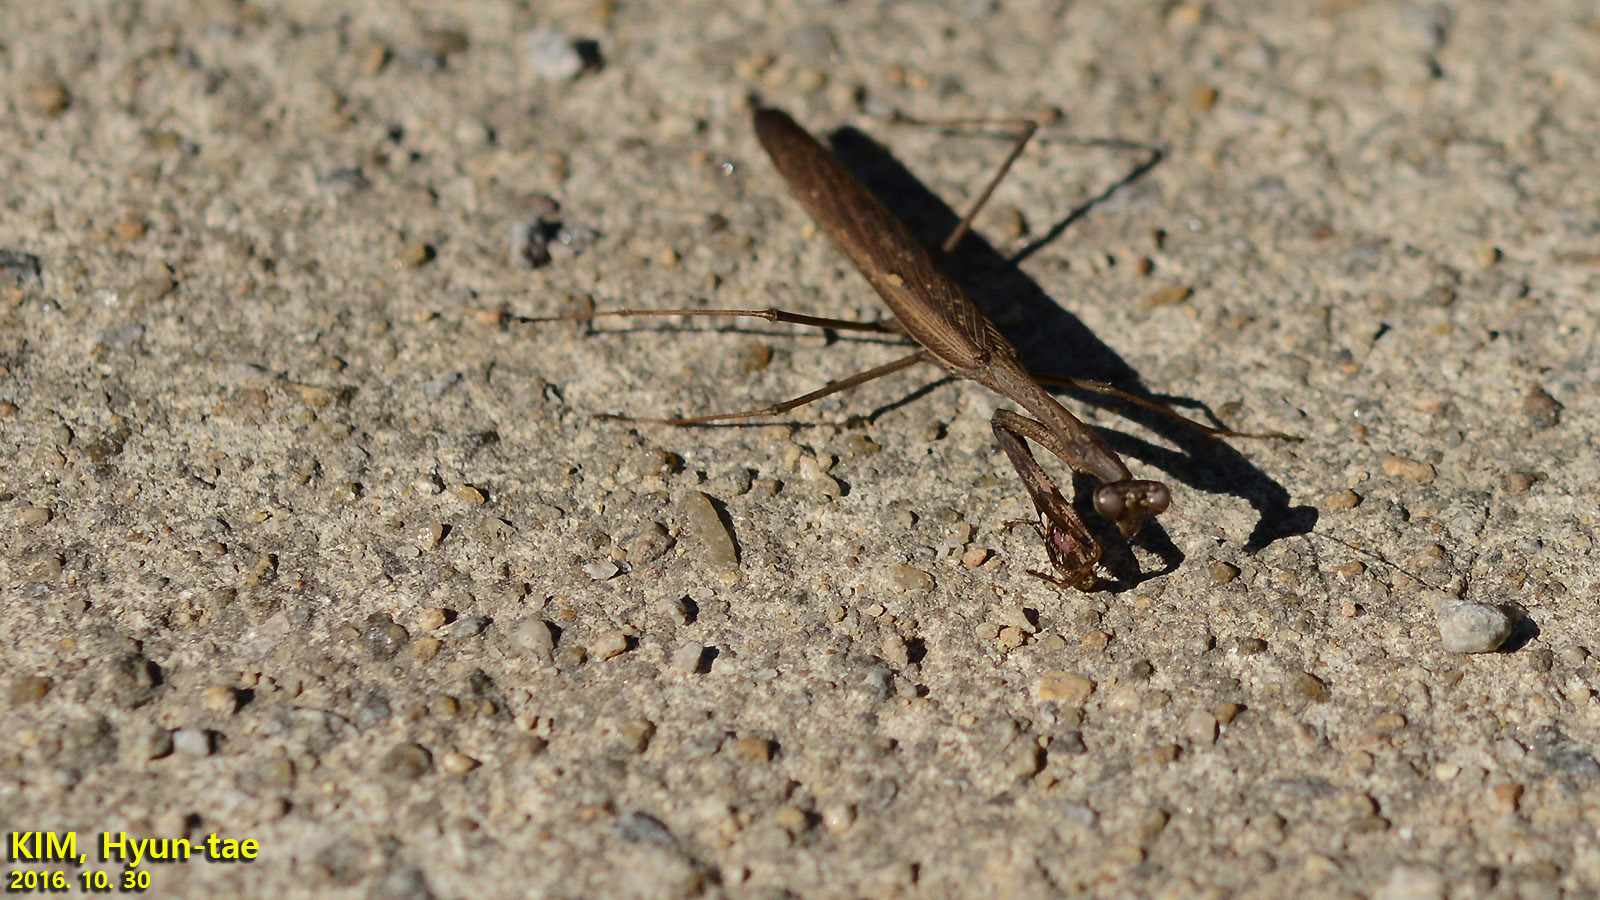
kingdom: Animalia
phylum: Arthropoda
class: Insecta
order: Mantodea
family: Mantidae
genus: Statilia
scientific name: Statilia maculata
